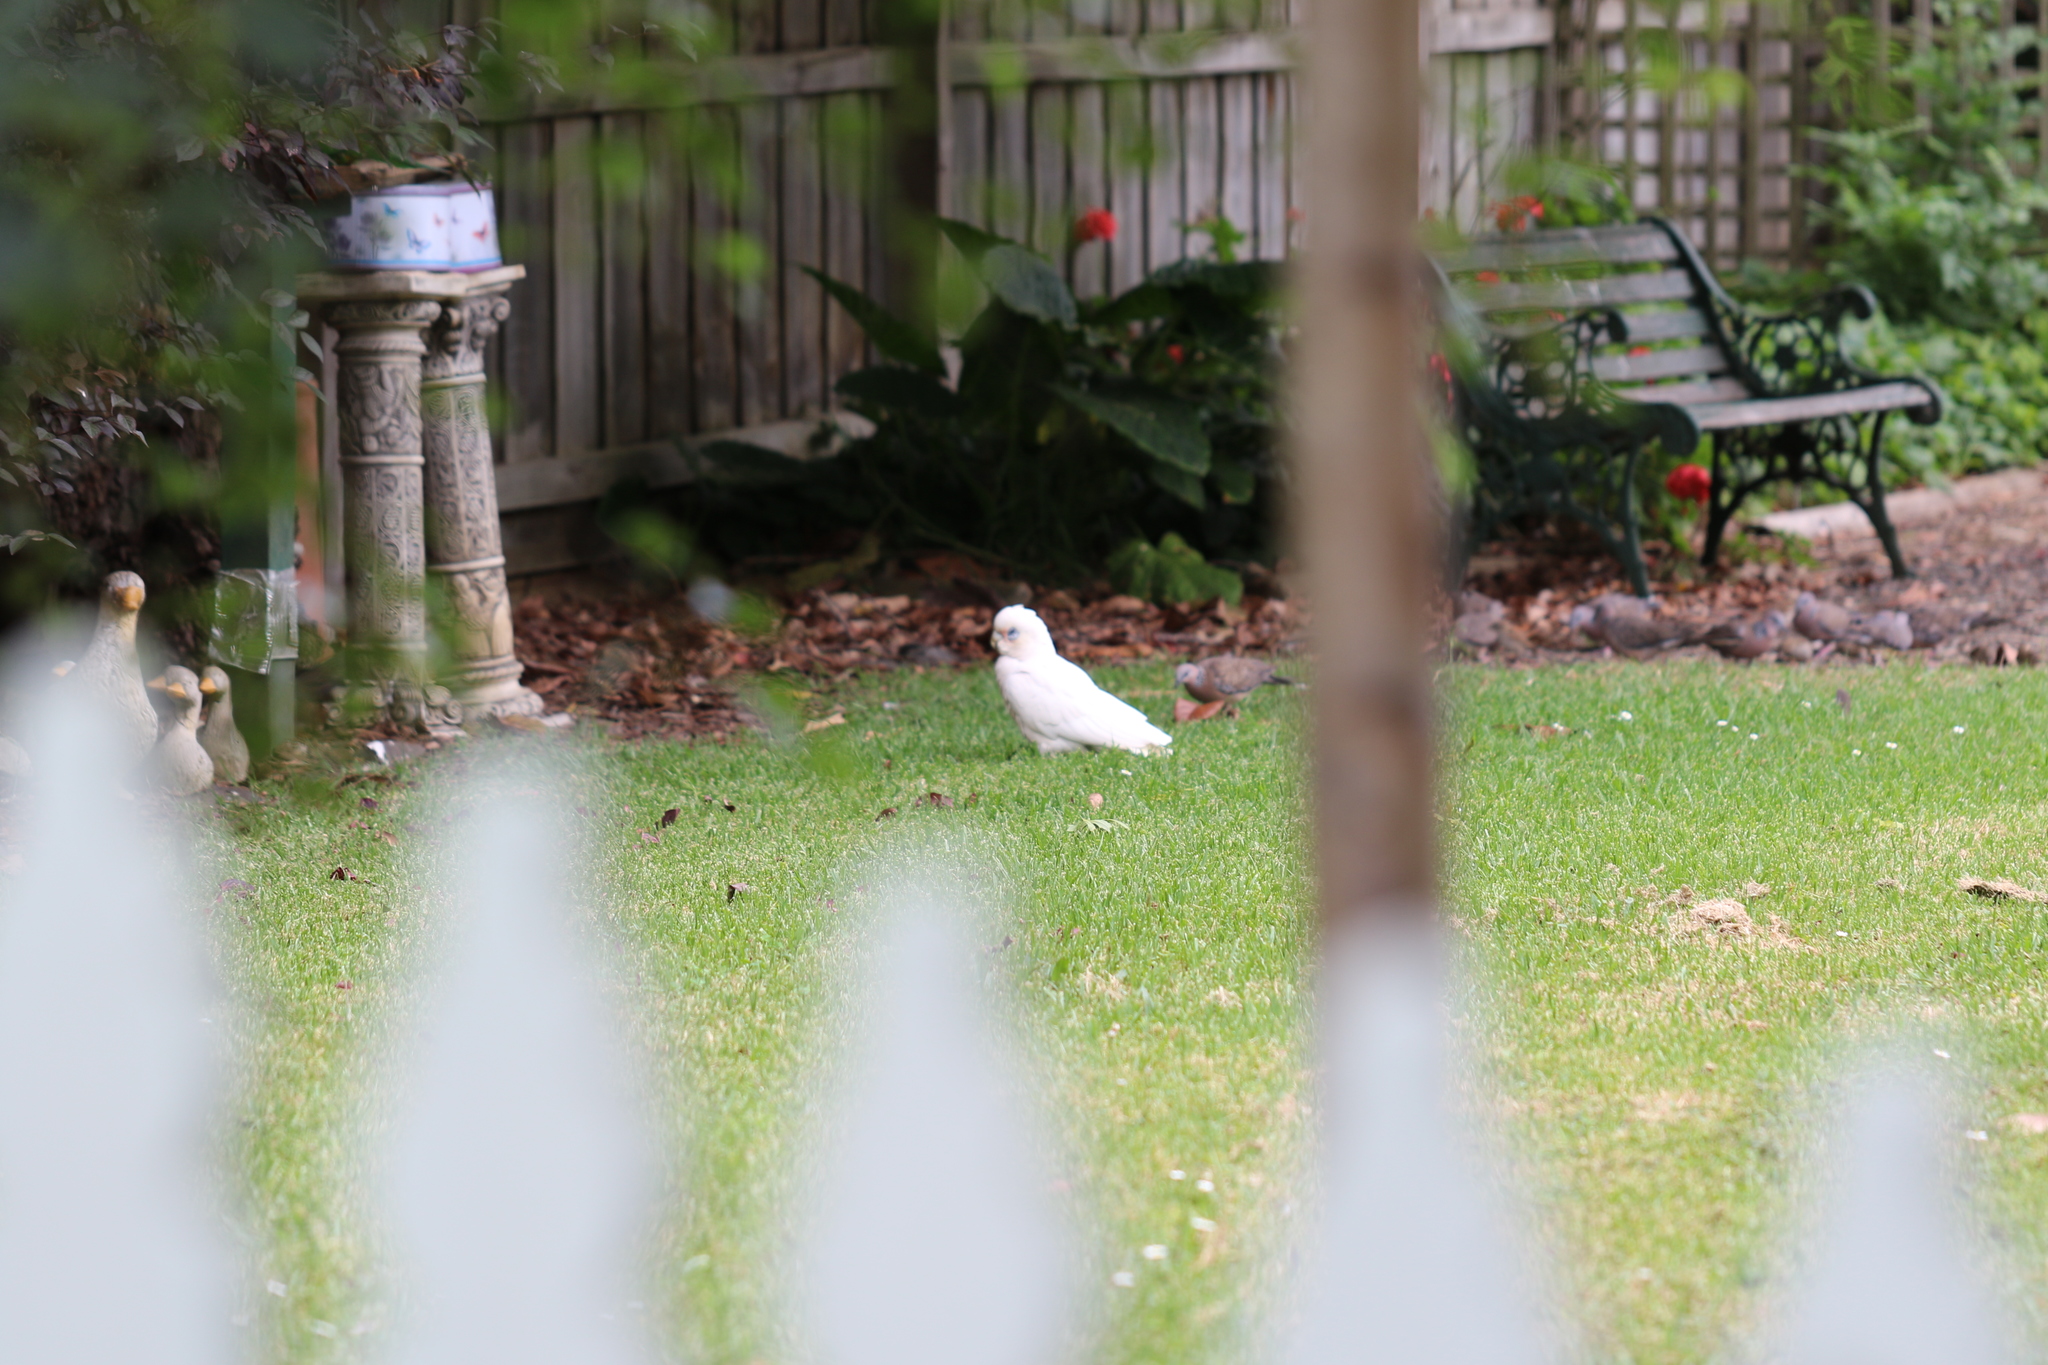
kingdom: Animalia
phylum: Chordata
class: Aves
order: Psittaciformes
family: Psittacidae
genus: Cacatua
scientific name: Cacatua sanguinea
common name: Little corella
